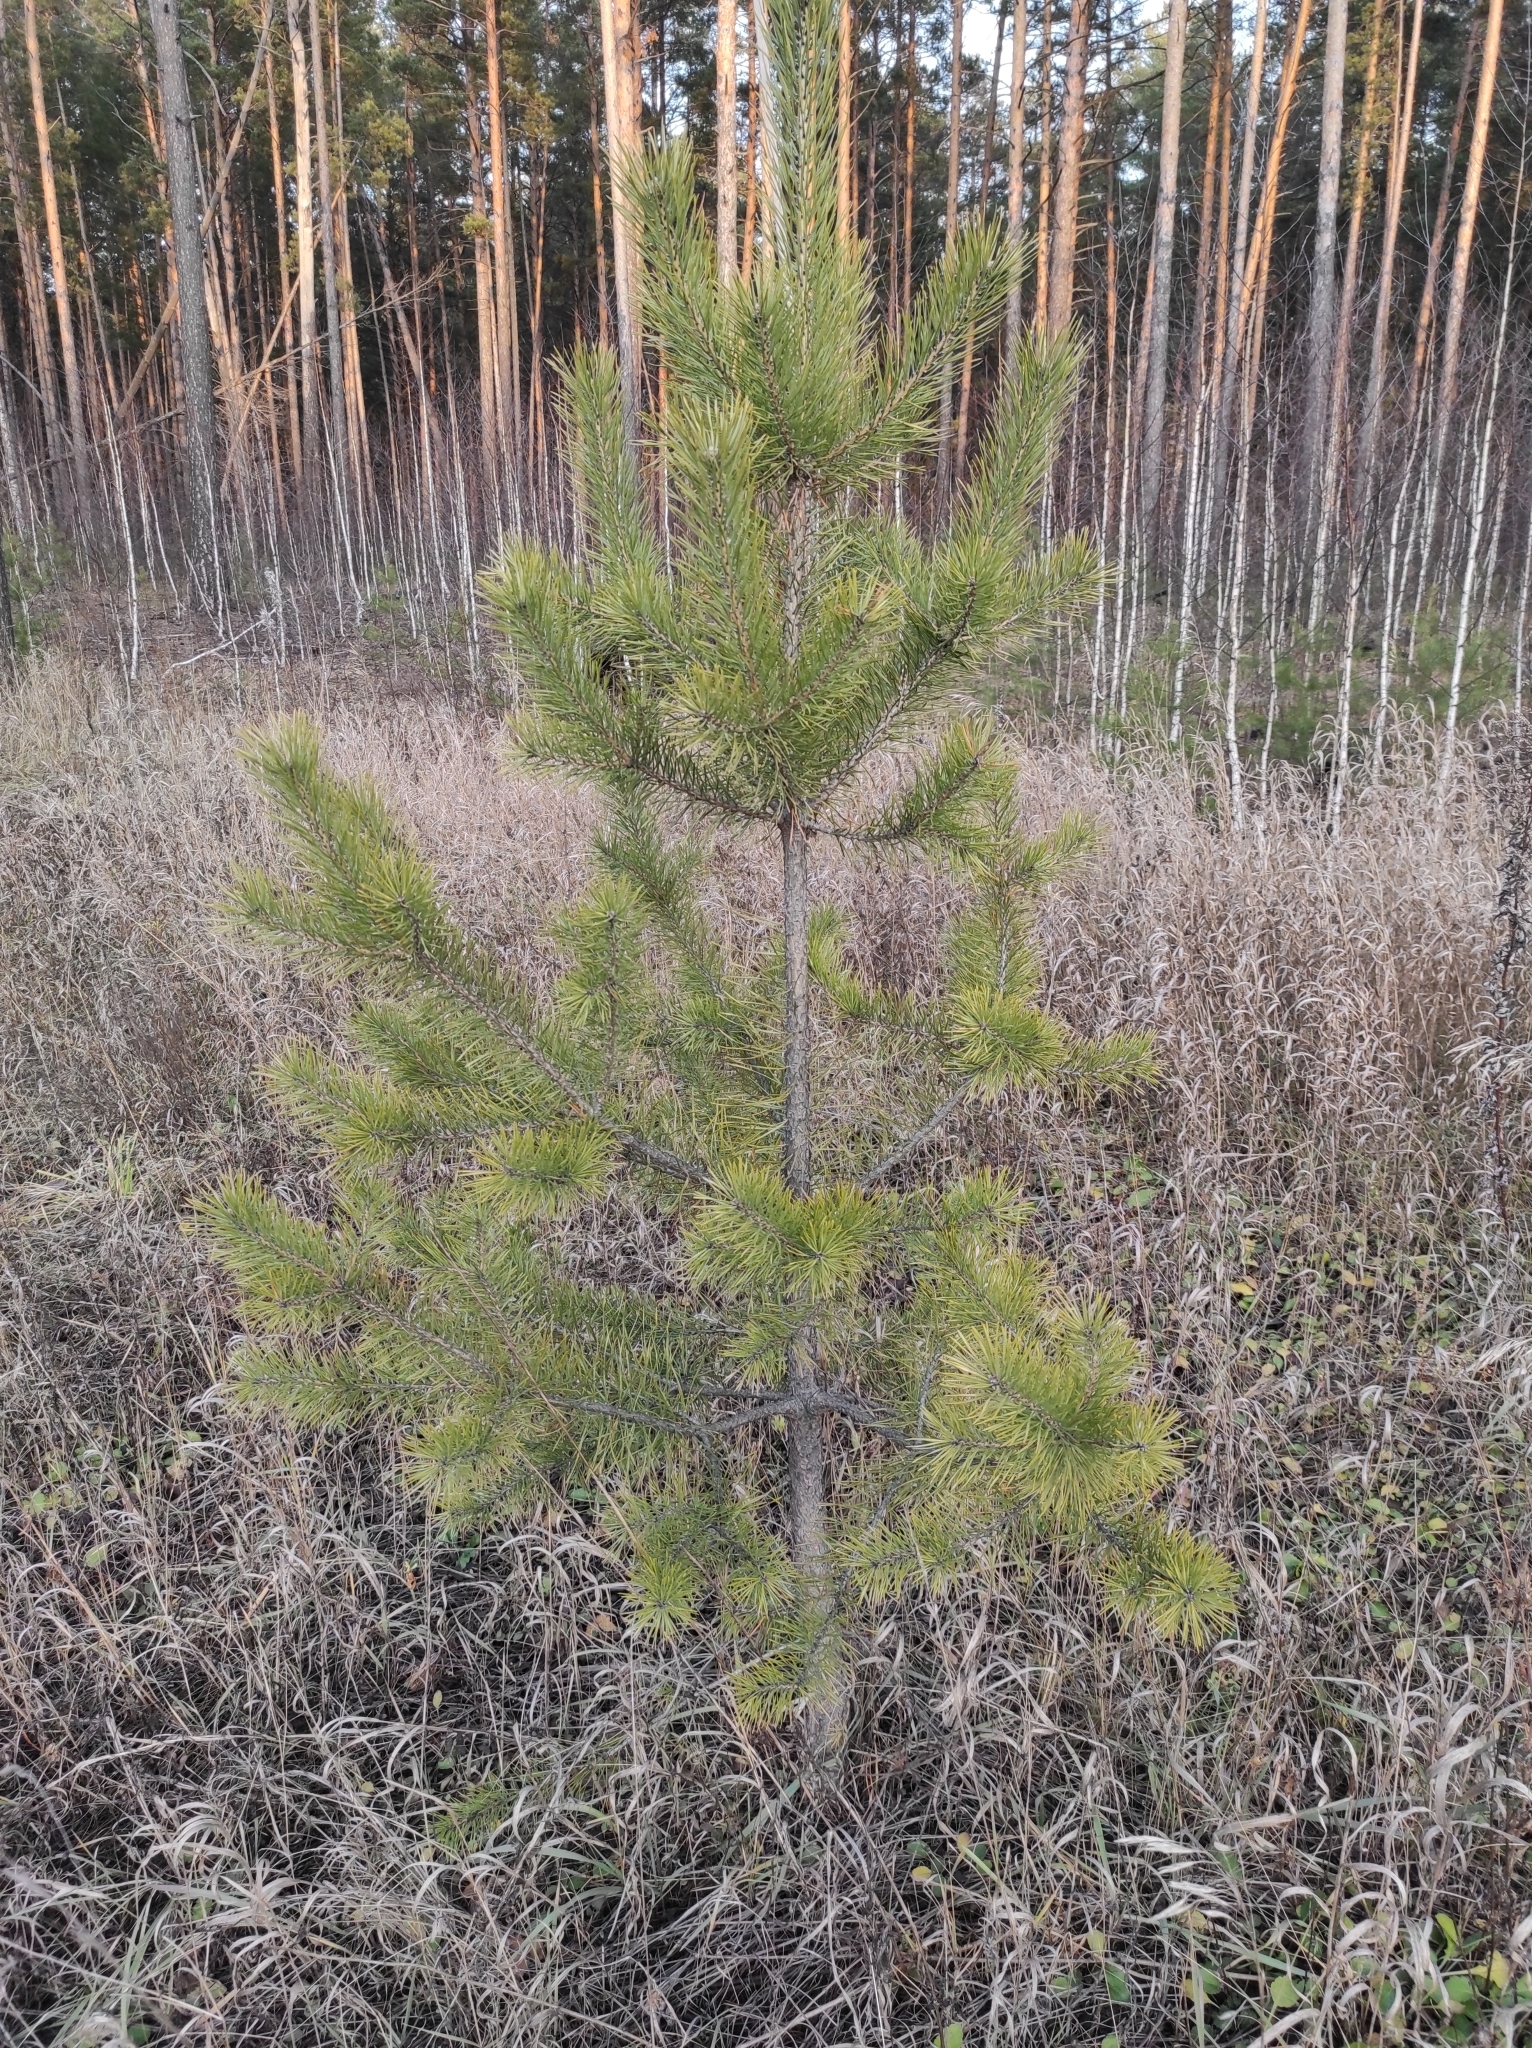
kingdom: Plantae
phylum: Tracheophyta
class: Pinopsida
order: Pinales
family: Pinaceae
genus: Pinus
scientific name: Pinus sylvestris
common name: Scots pine
